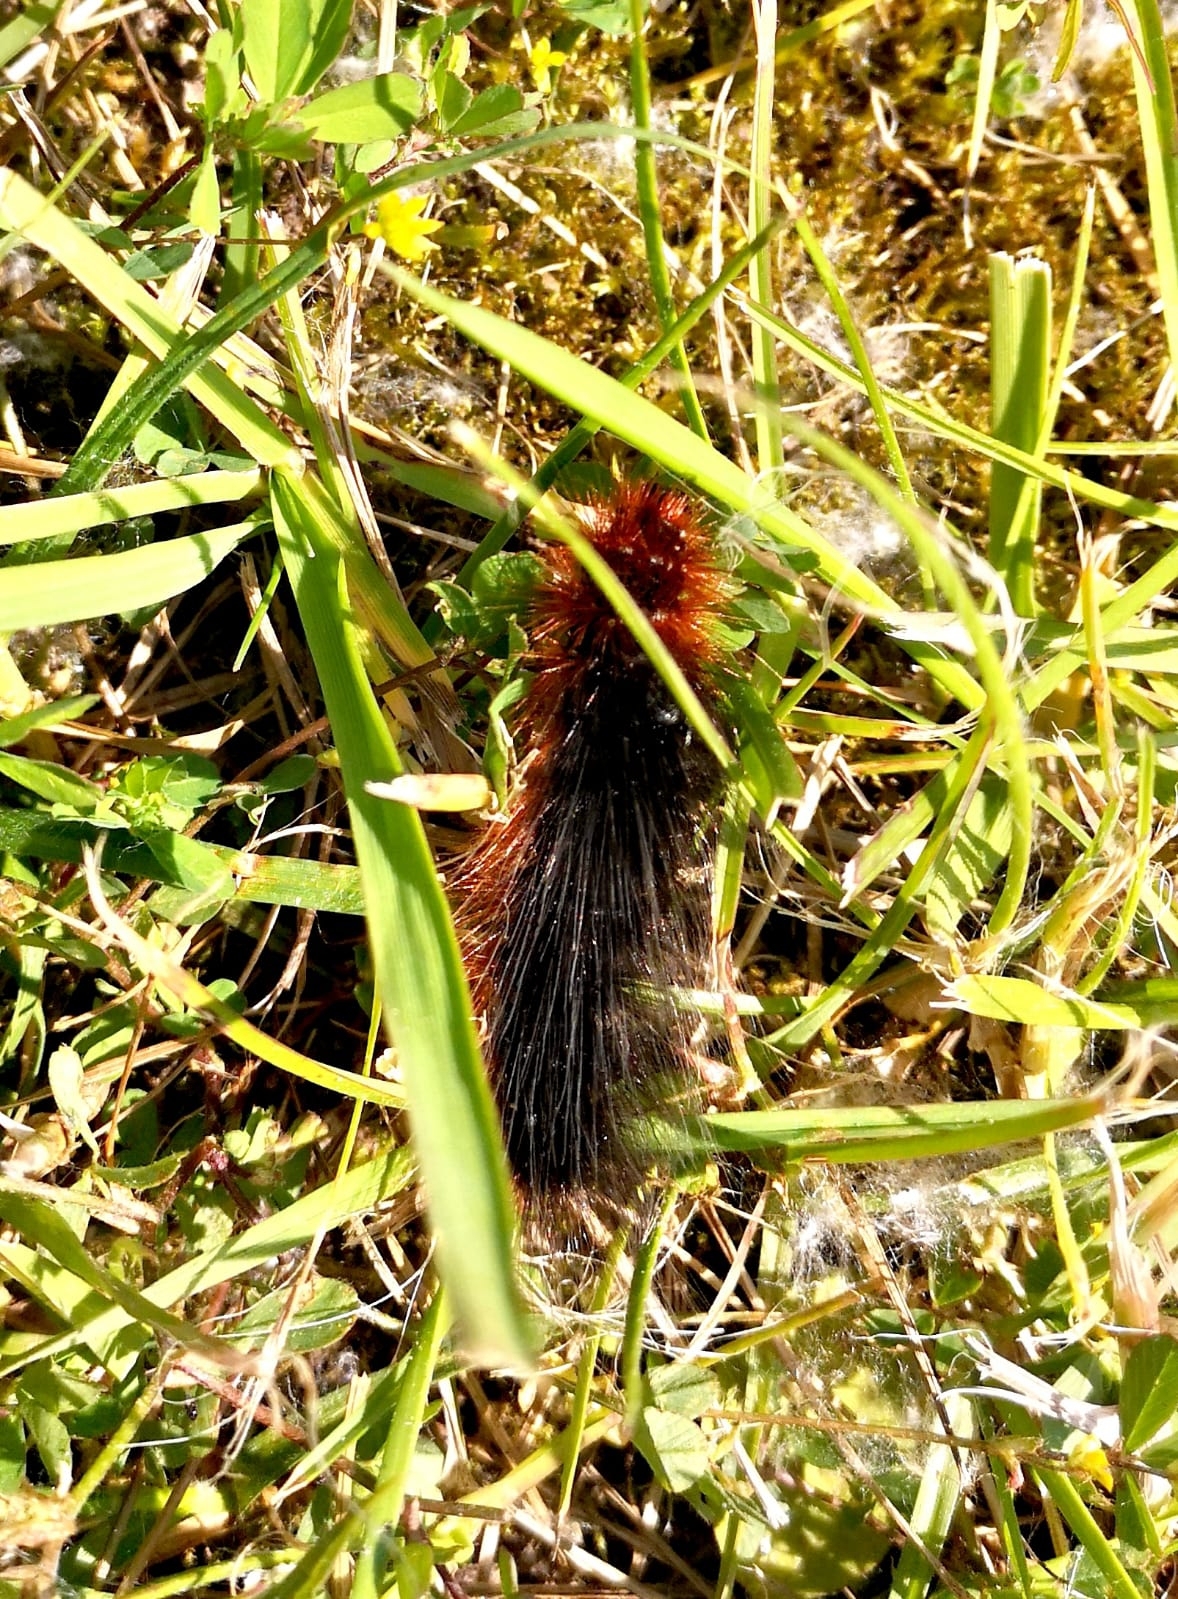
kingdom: Animalia
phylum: Arthropoda
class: Insecta
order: Lepidoptera
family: Erebidae
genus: Arctia
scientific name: Arctia caja
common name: Garden tiger
